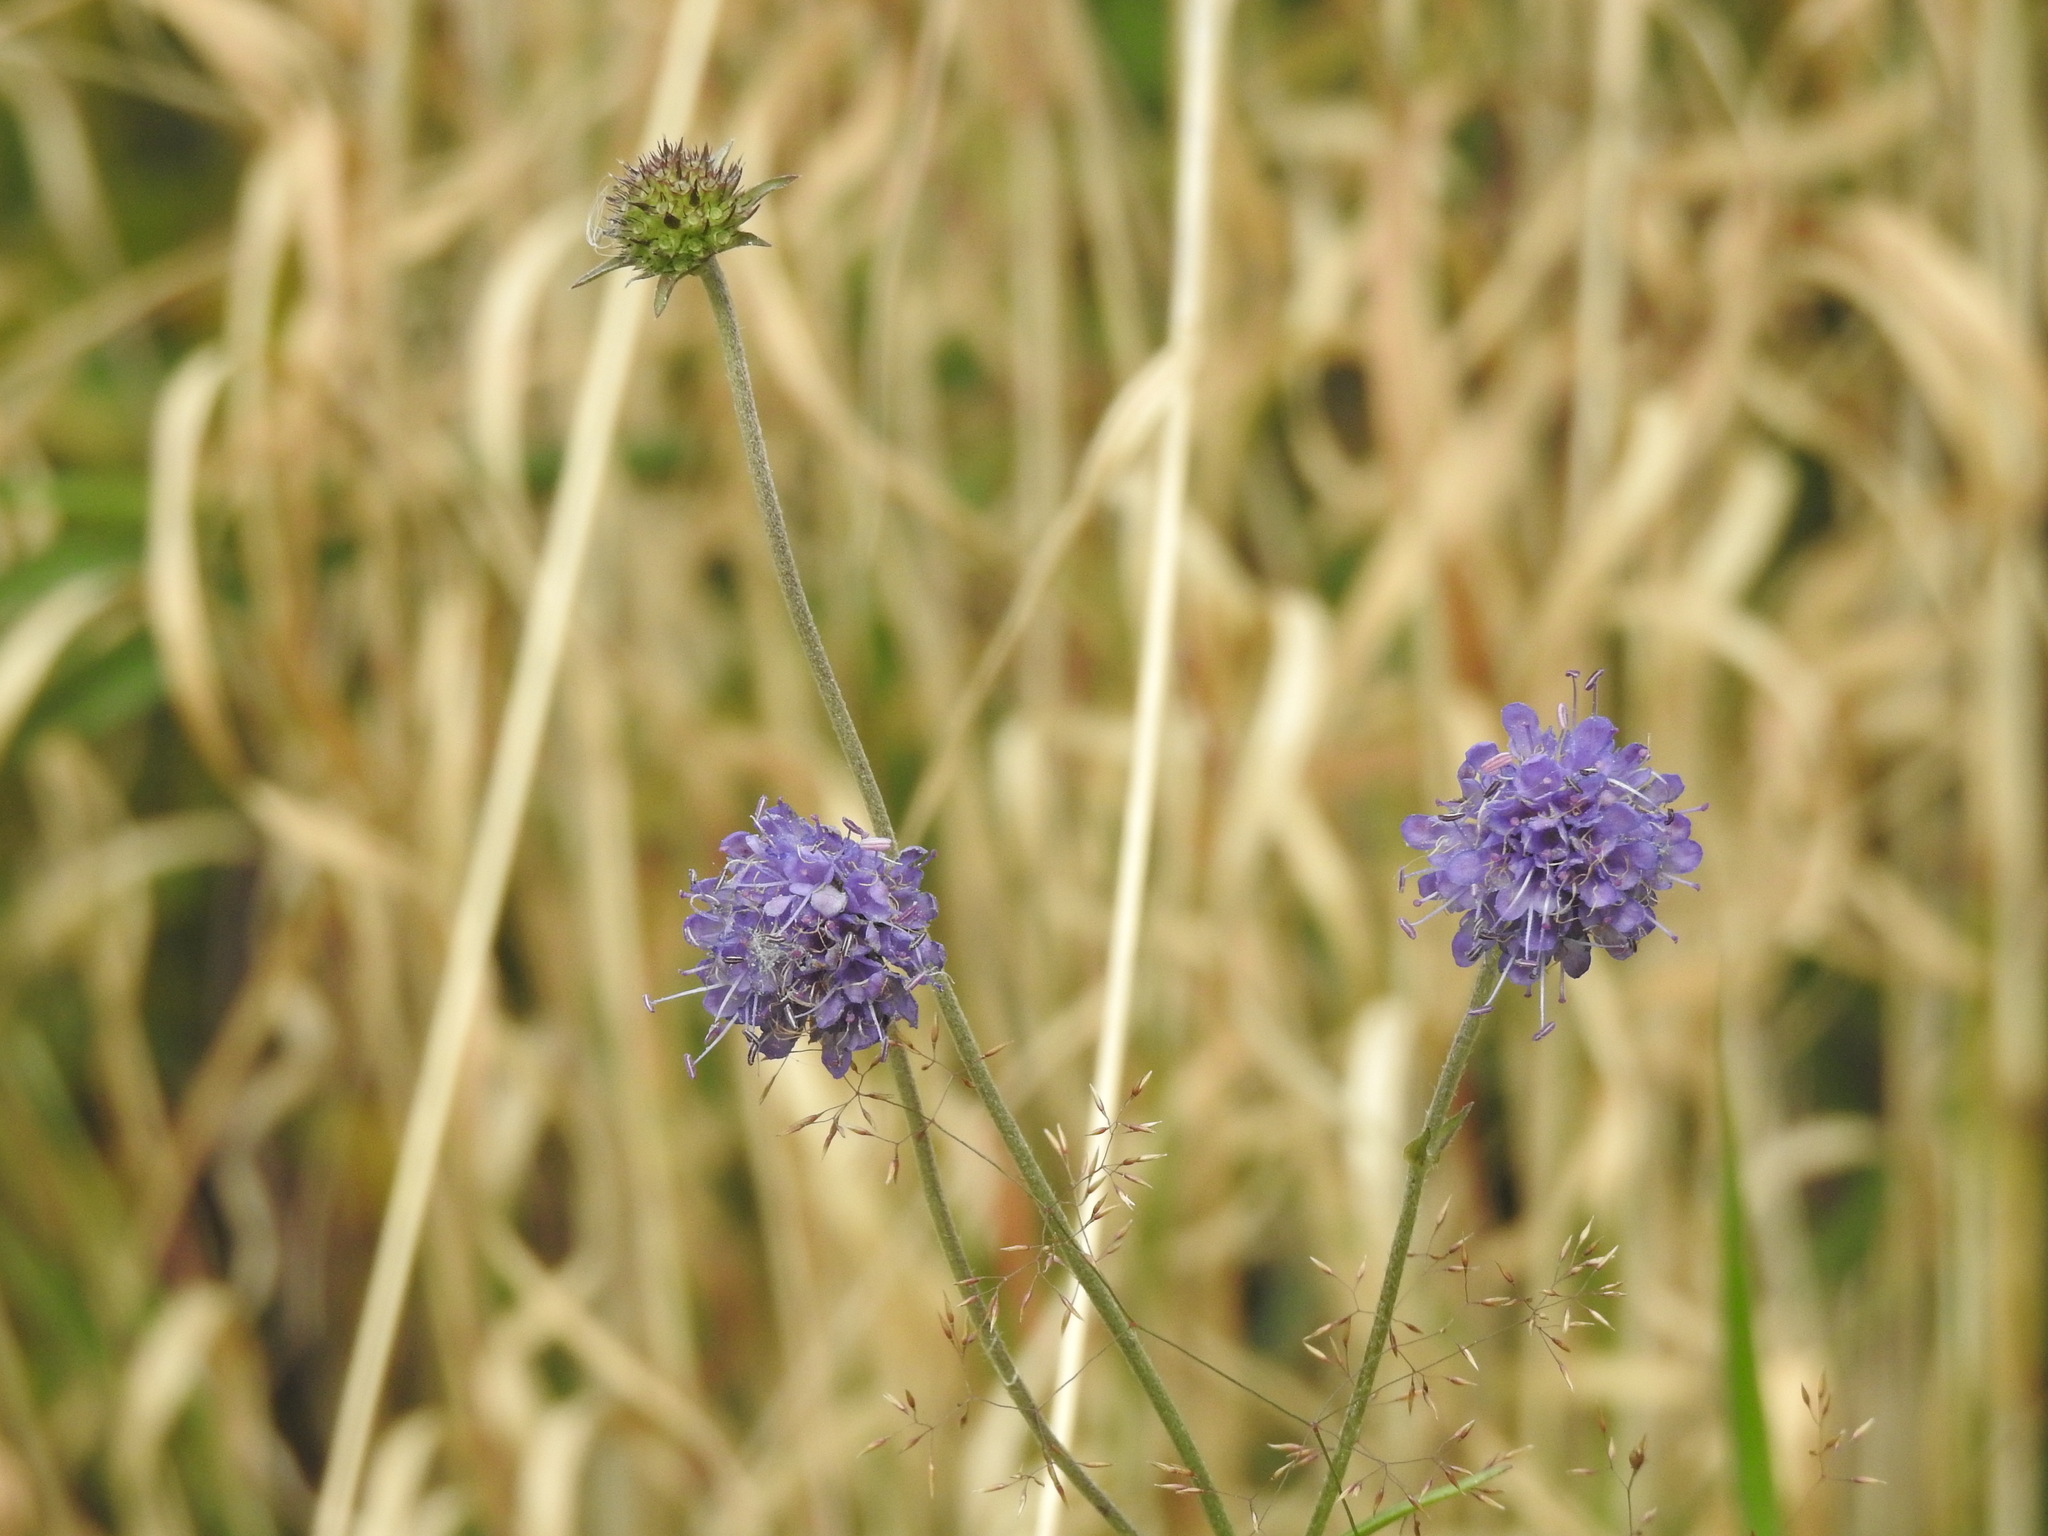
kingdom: Plantae
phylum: Tracheophyta
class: Magnoliopsida
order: Dipsacales
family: Caprifoliaceae
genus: Succisa
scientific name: Succisa pratensis
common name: Devil's-bit
